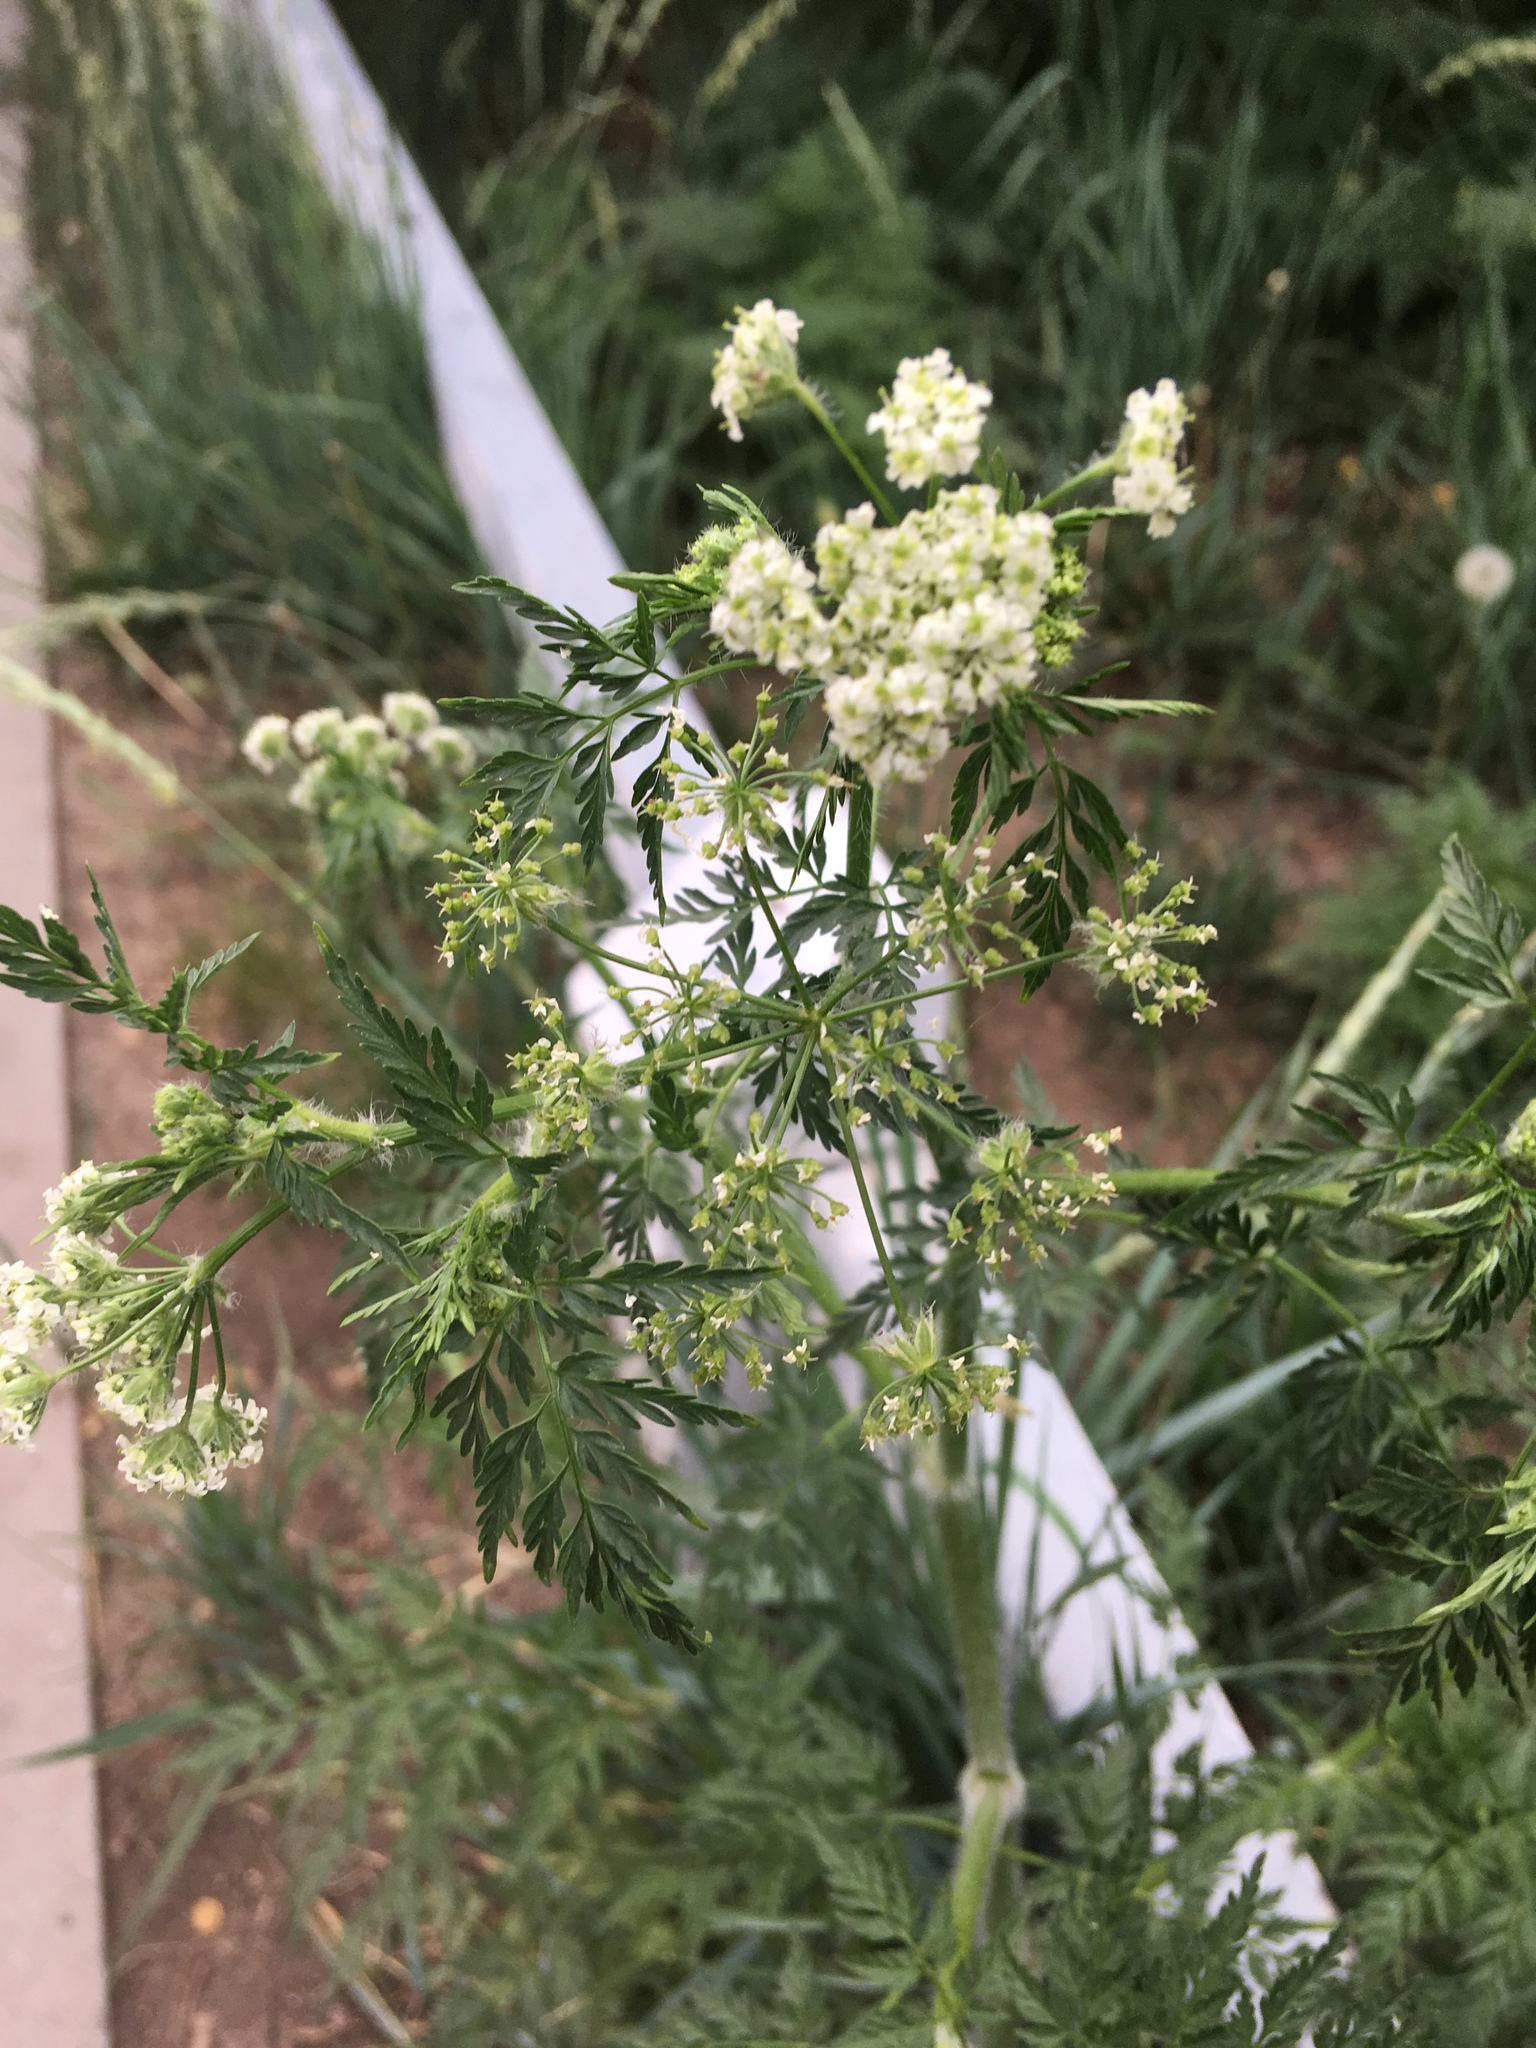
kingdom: Plantae
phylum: Tracheophyta
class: Magnoliopsida
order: Apiales
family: Apiaceae
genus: Sphallerocarpus
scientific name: Sphallerocarpus gracilis
